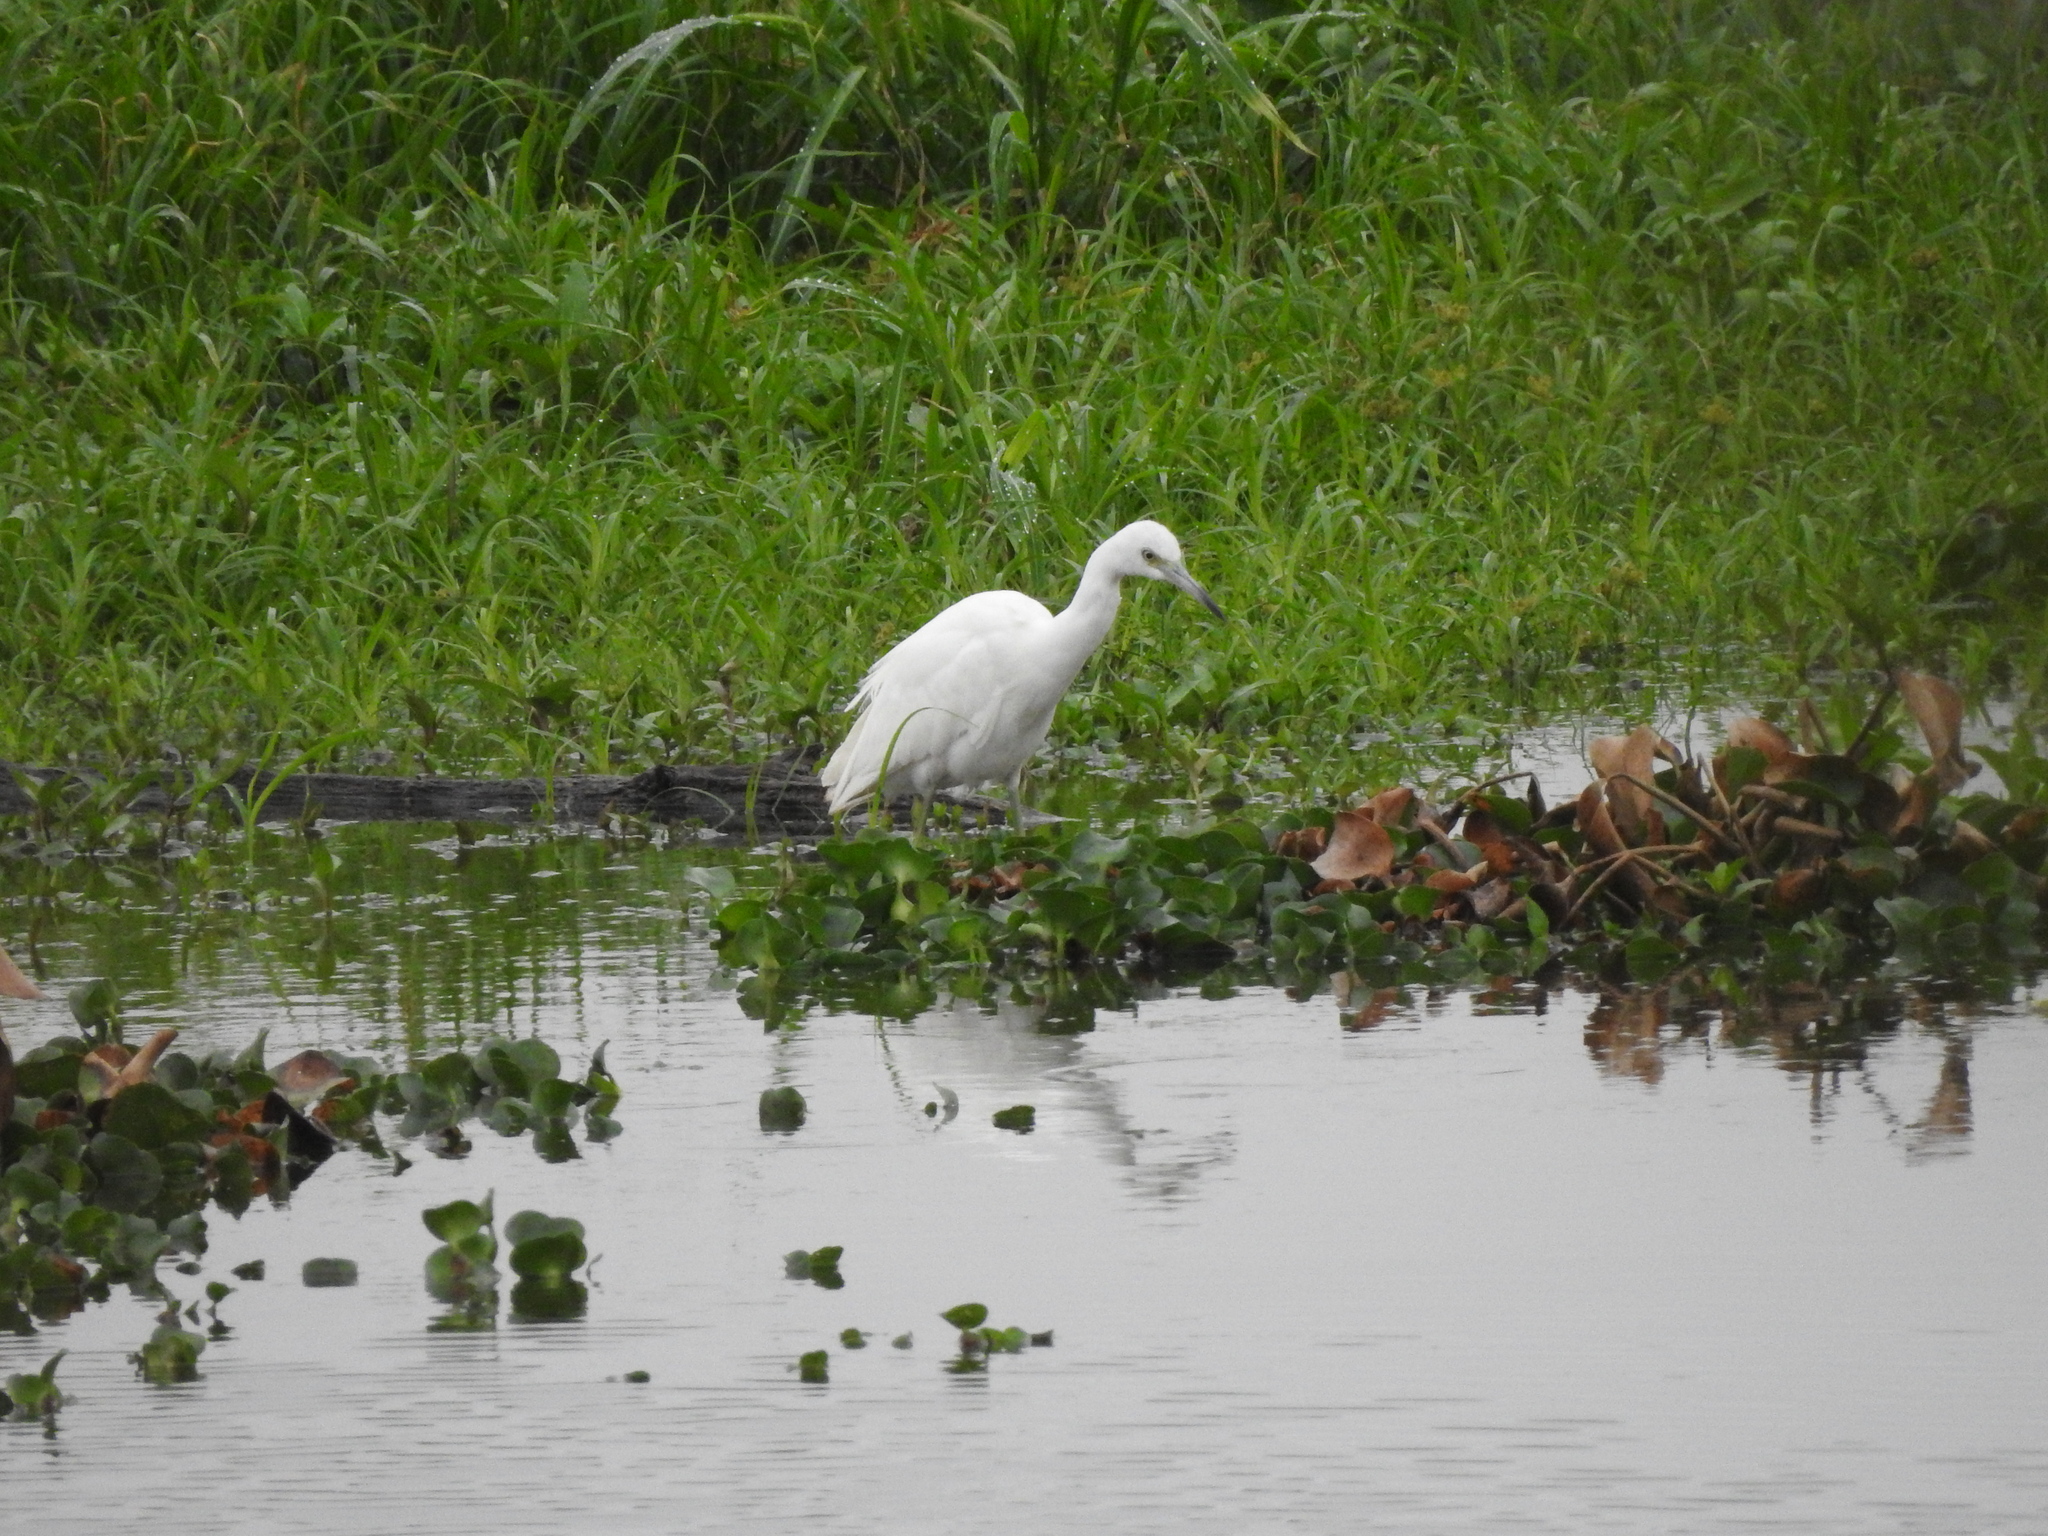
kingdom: Animalia
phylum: Chordata
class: Aves
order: Pelecaniformes
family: Ardeidae
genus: Egretta
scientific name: Egretta caerulea
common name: Little blue heron
